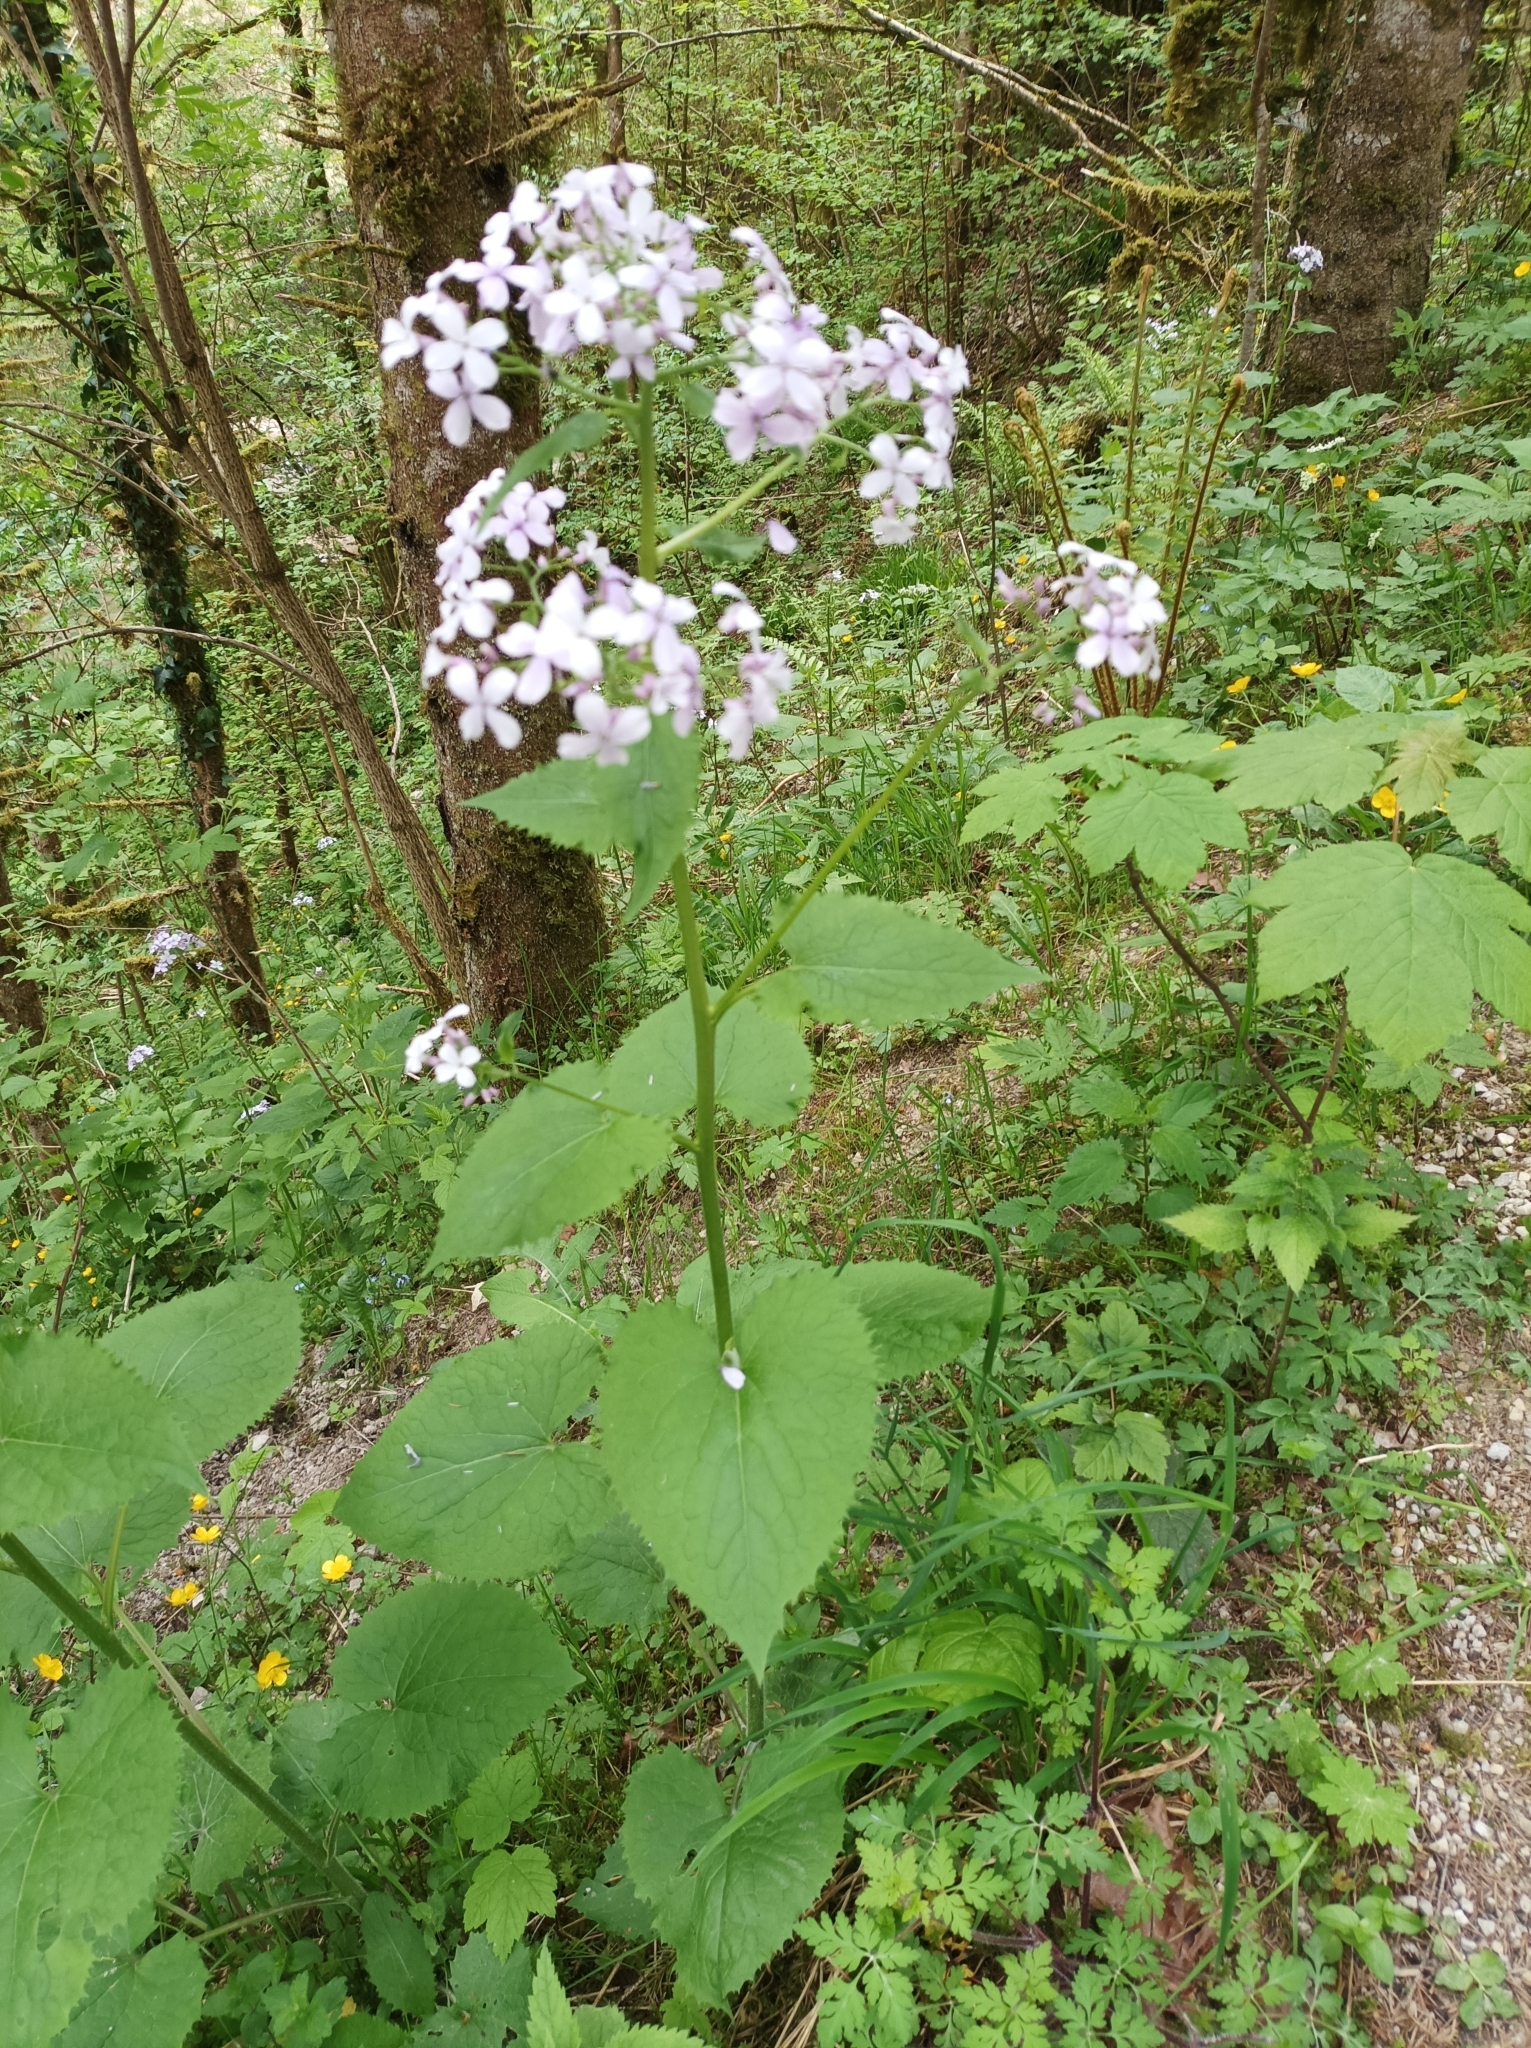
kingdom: Plantae
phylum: Tracheophyta
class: Magnoliopsida
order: Brassicales
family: Brassicaceae
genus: Lunaria
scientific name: Lunaria rediviva
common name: Perennial honesty
